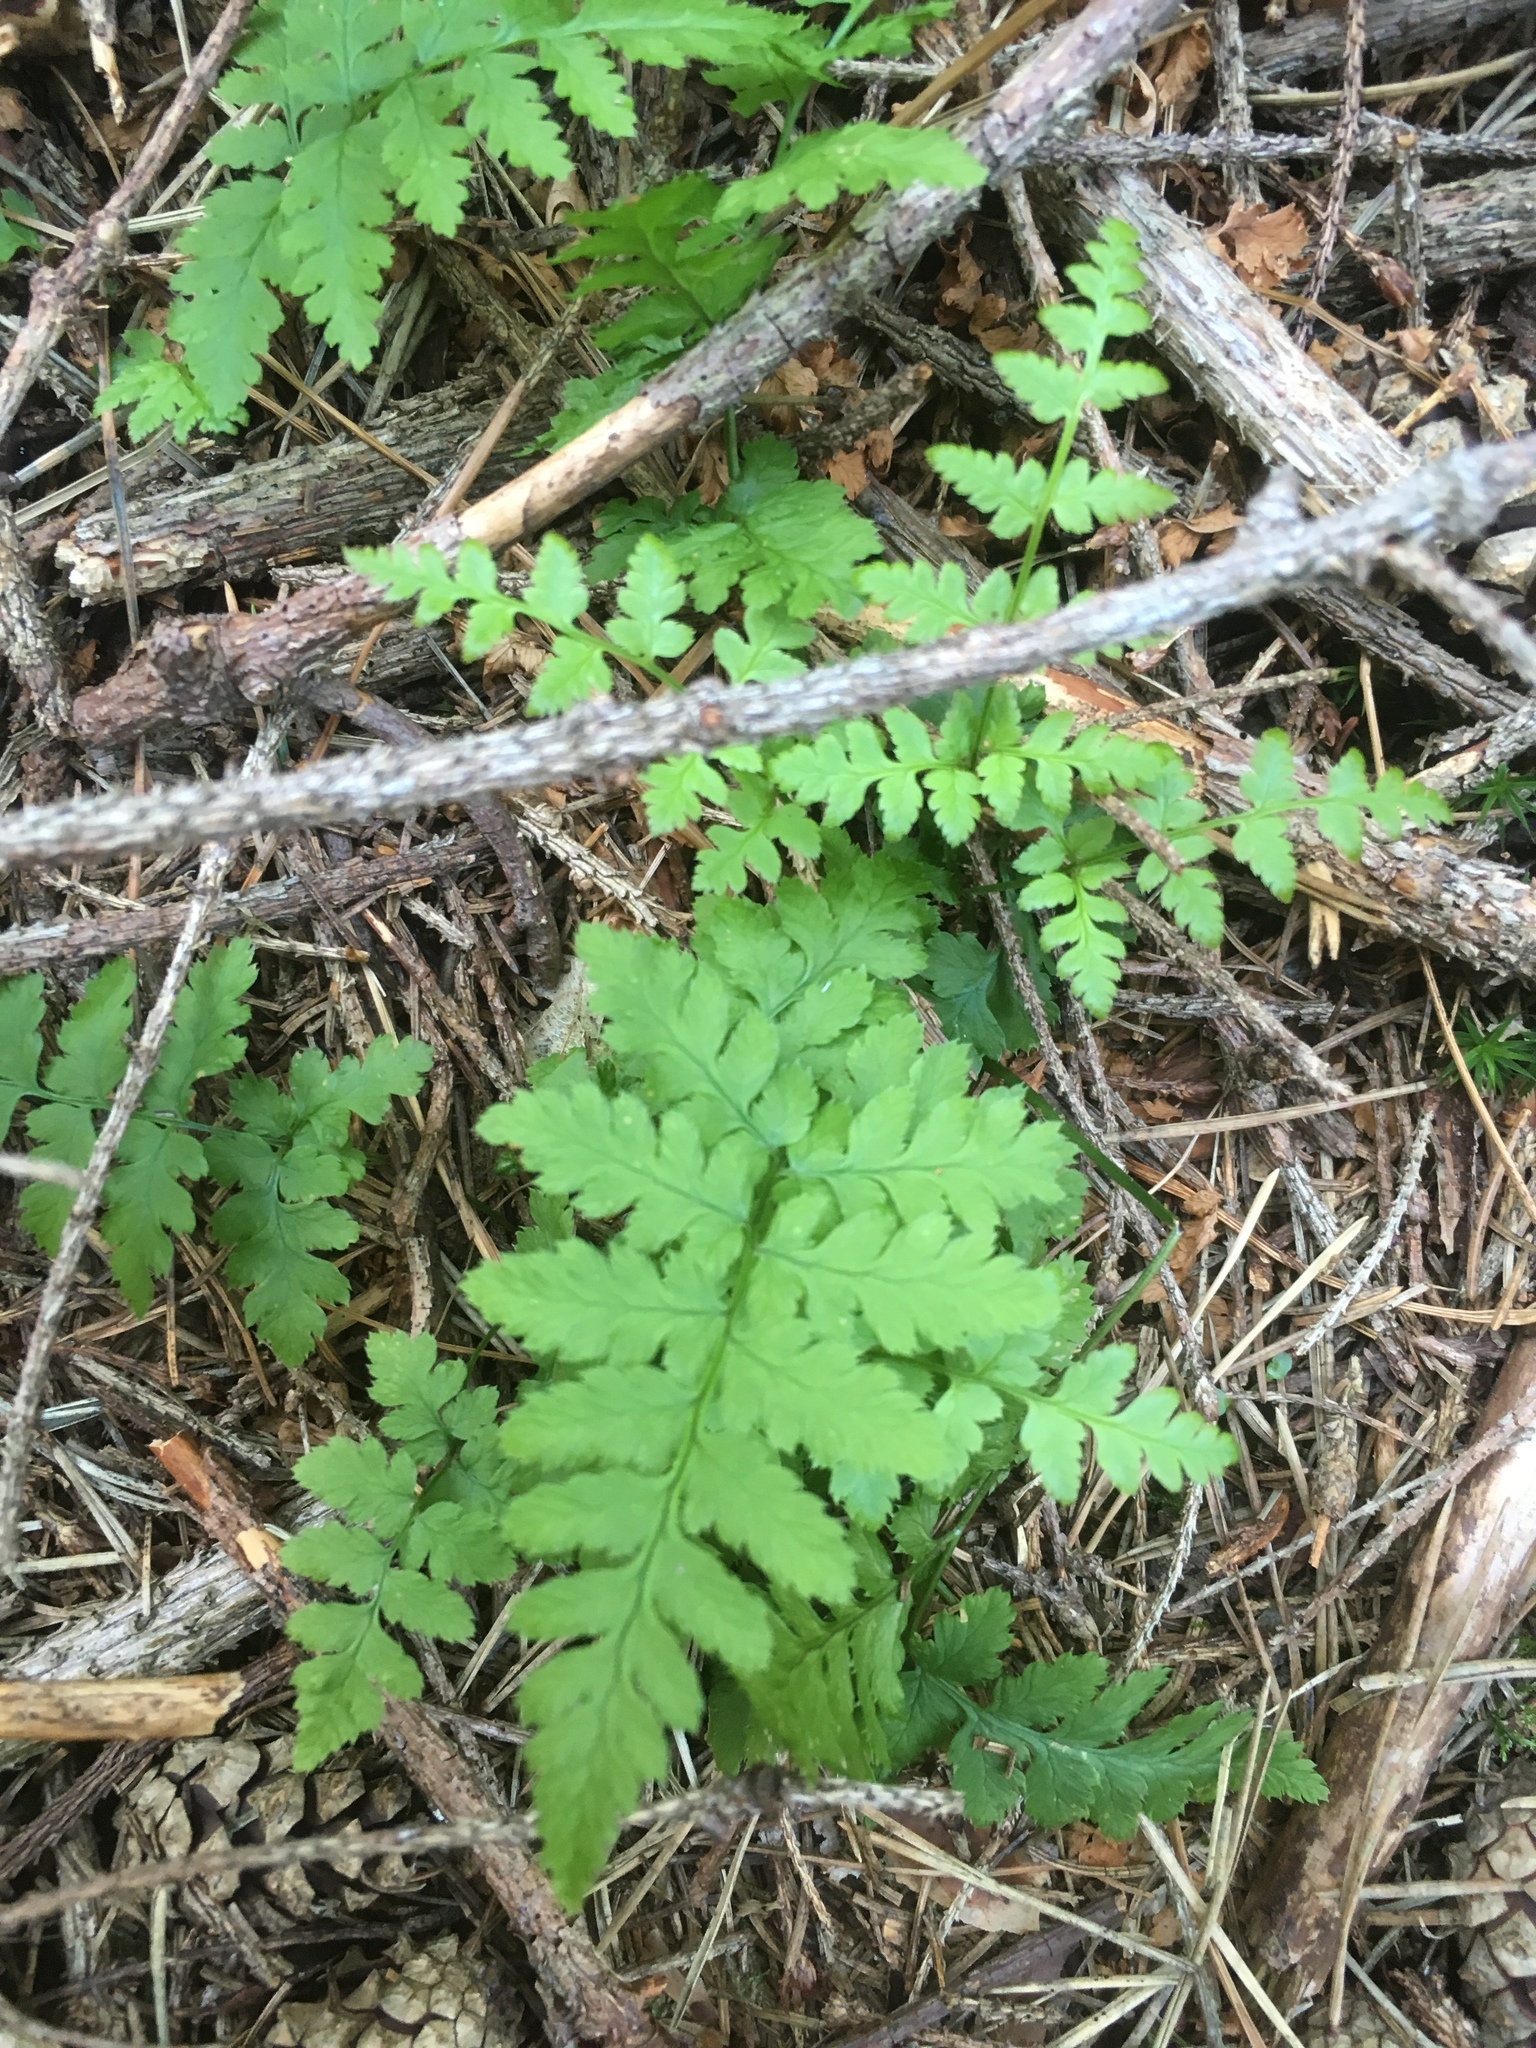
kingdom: Plantae
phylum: Tracheophyta
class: Polypodiopsida
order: Polypodiales
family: Dryopteridaceae
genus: Dryopteris
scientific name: Dryopteris carthusiana
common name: Narrow buckler-fern
